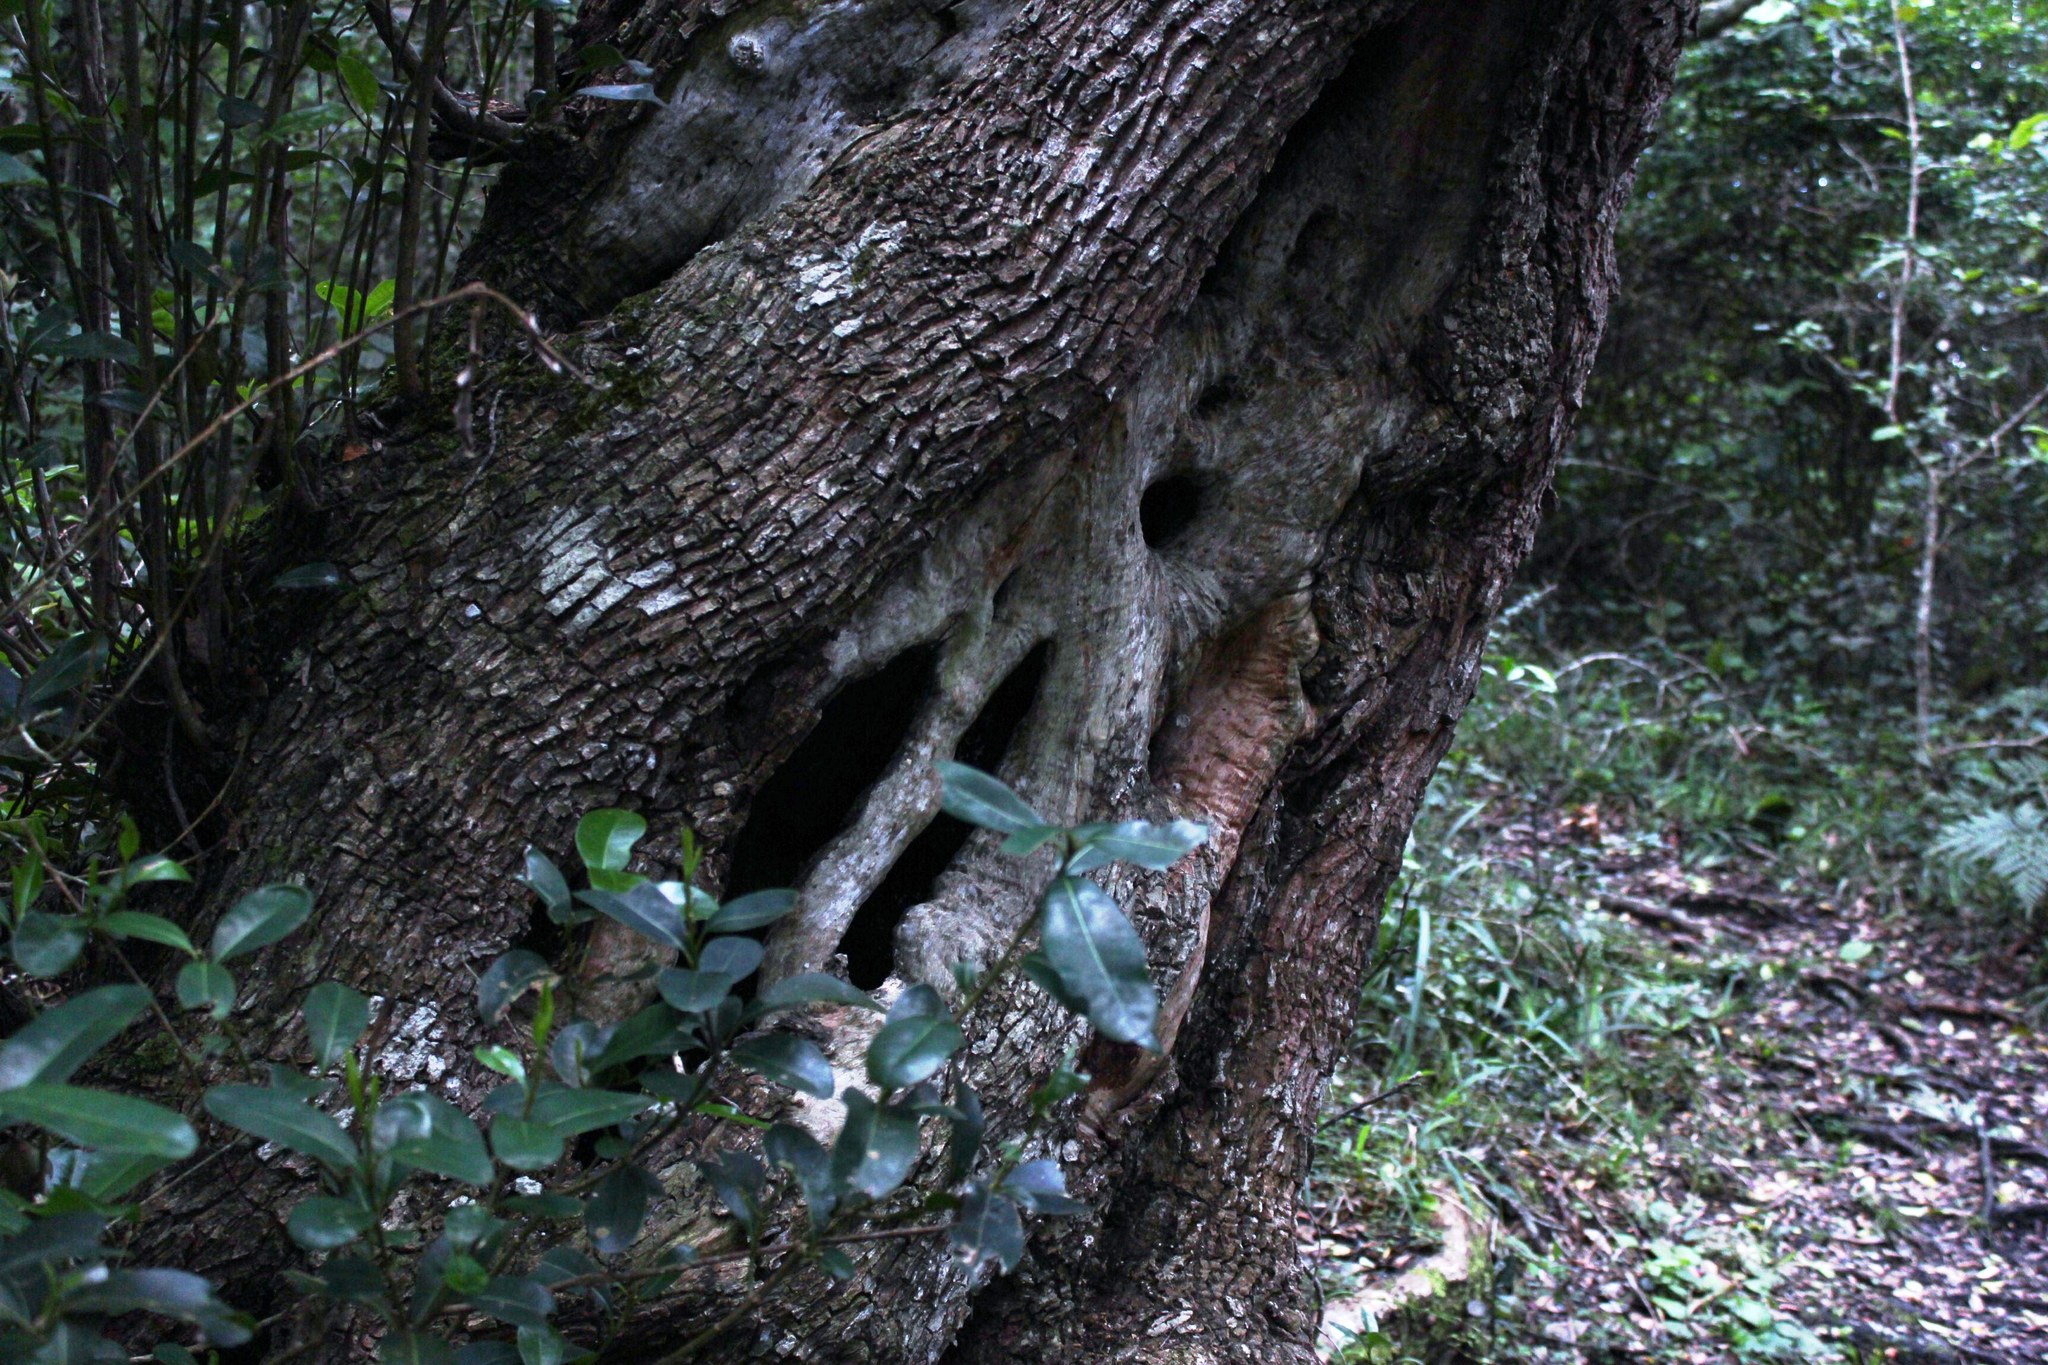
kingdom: Plantae
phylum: Tracheophyta
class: Magnoliopsida
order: Ericales
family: Sapotaceae
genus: Sideroxylon
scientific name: Sideroxylon inerme
